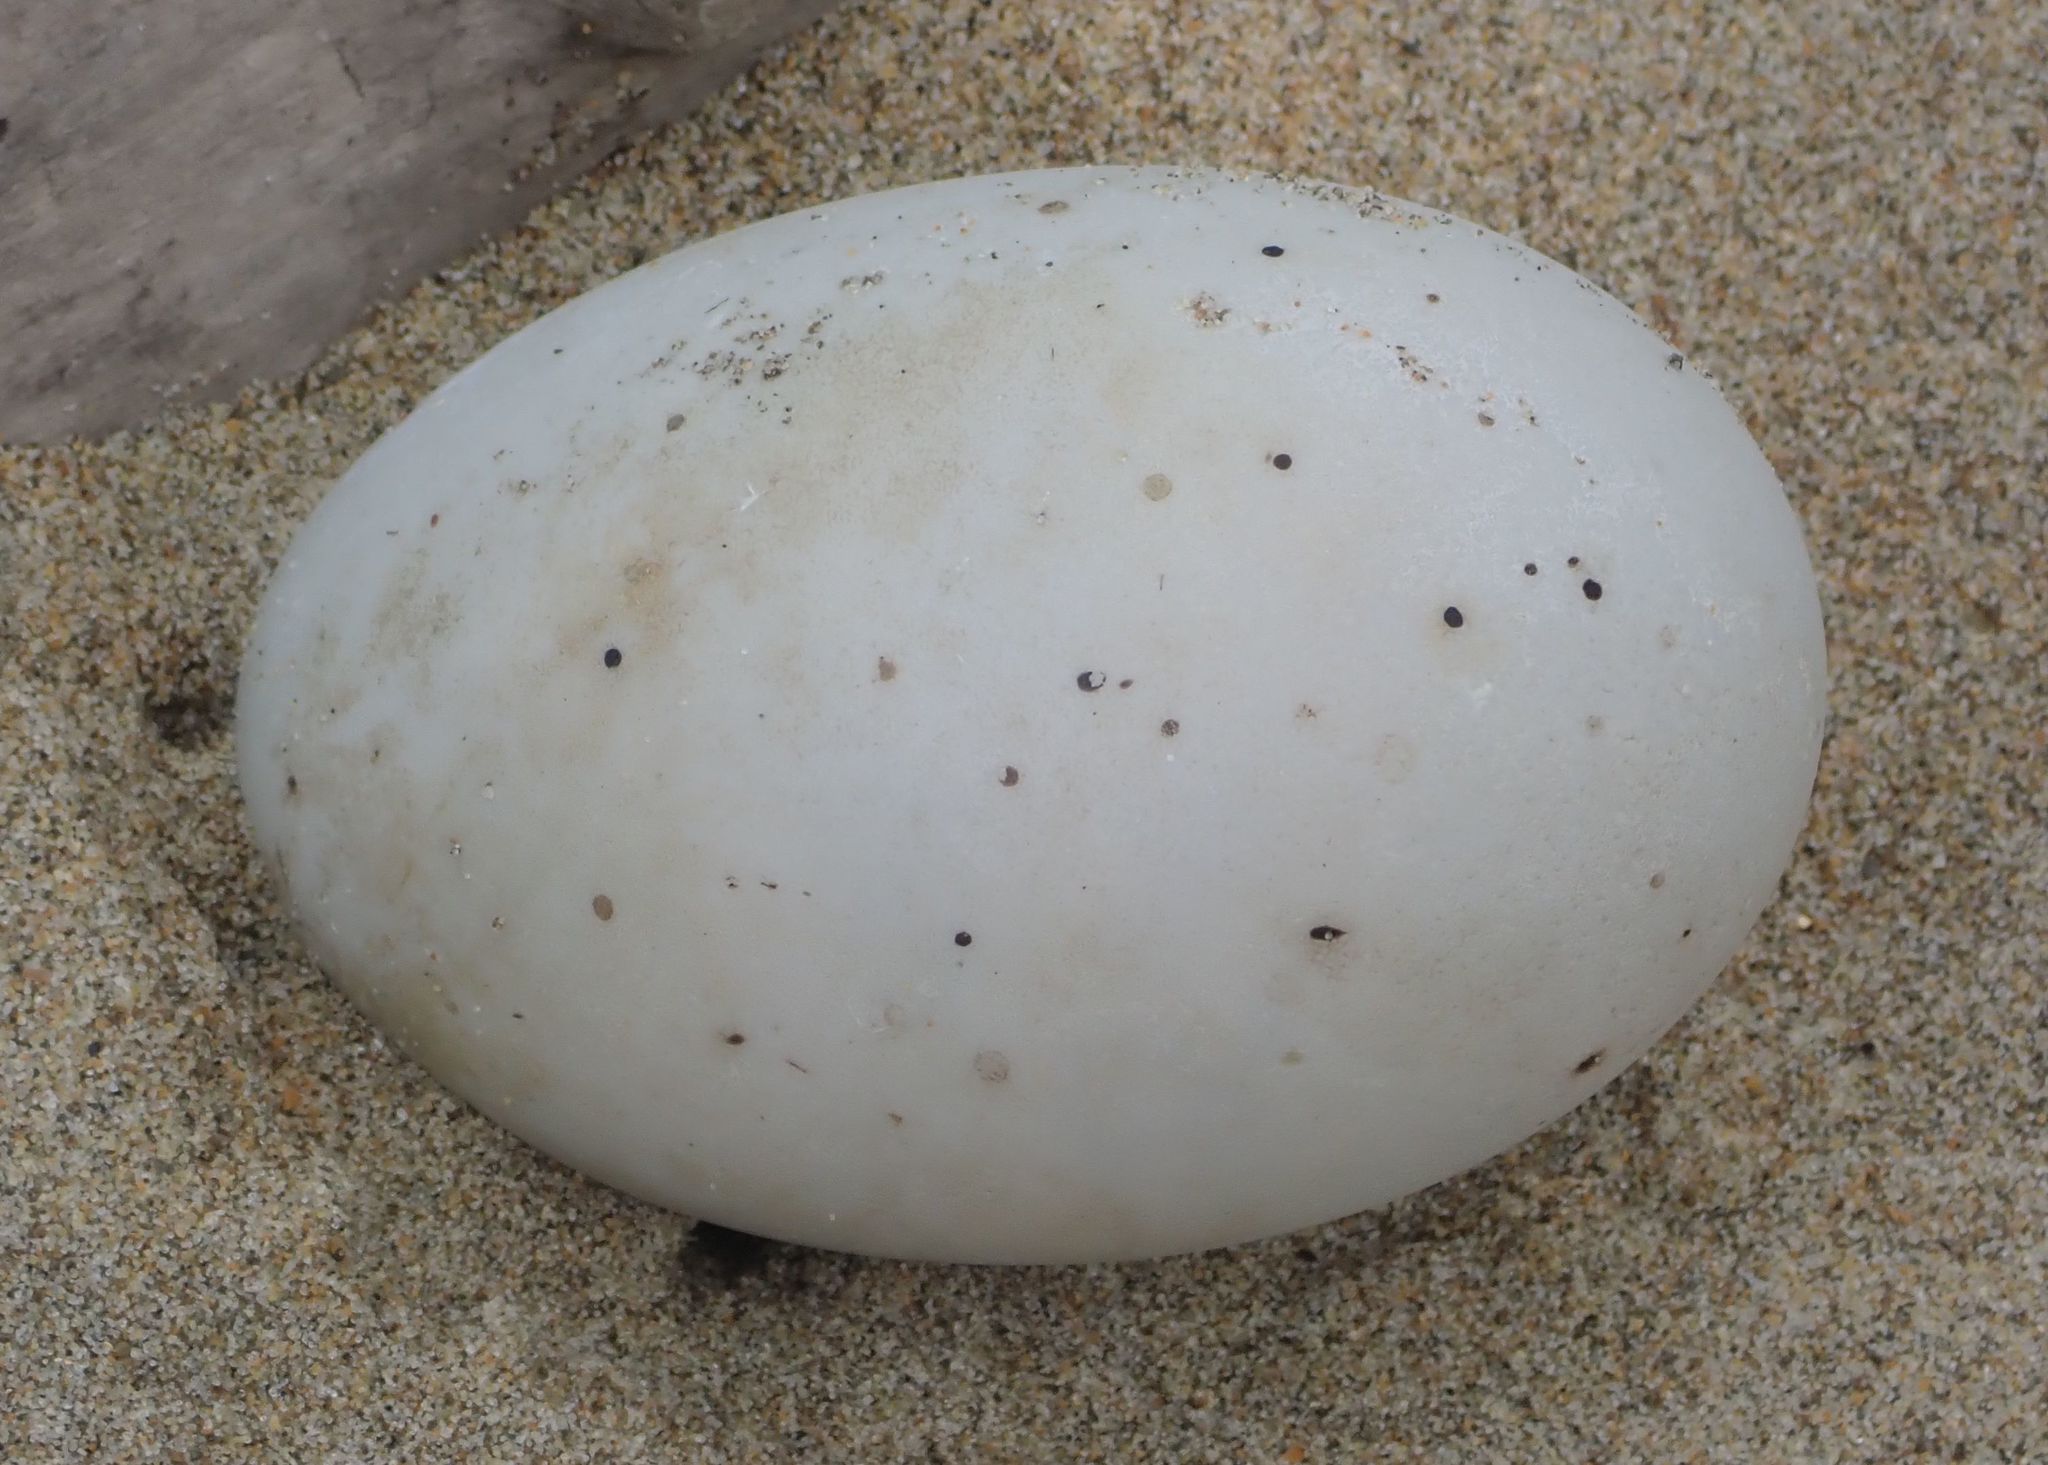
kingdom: Animalia
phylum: Chordata
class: Aves
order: Anseriformes
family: Anatidae
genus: Cygnus
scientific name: Cygnus atratus
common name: Black swan
